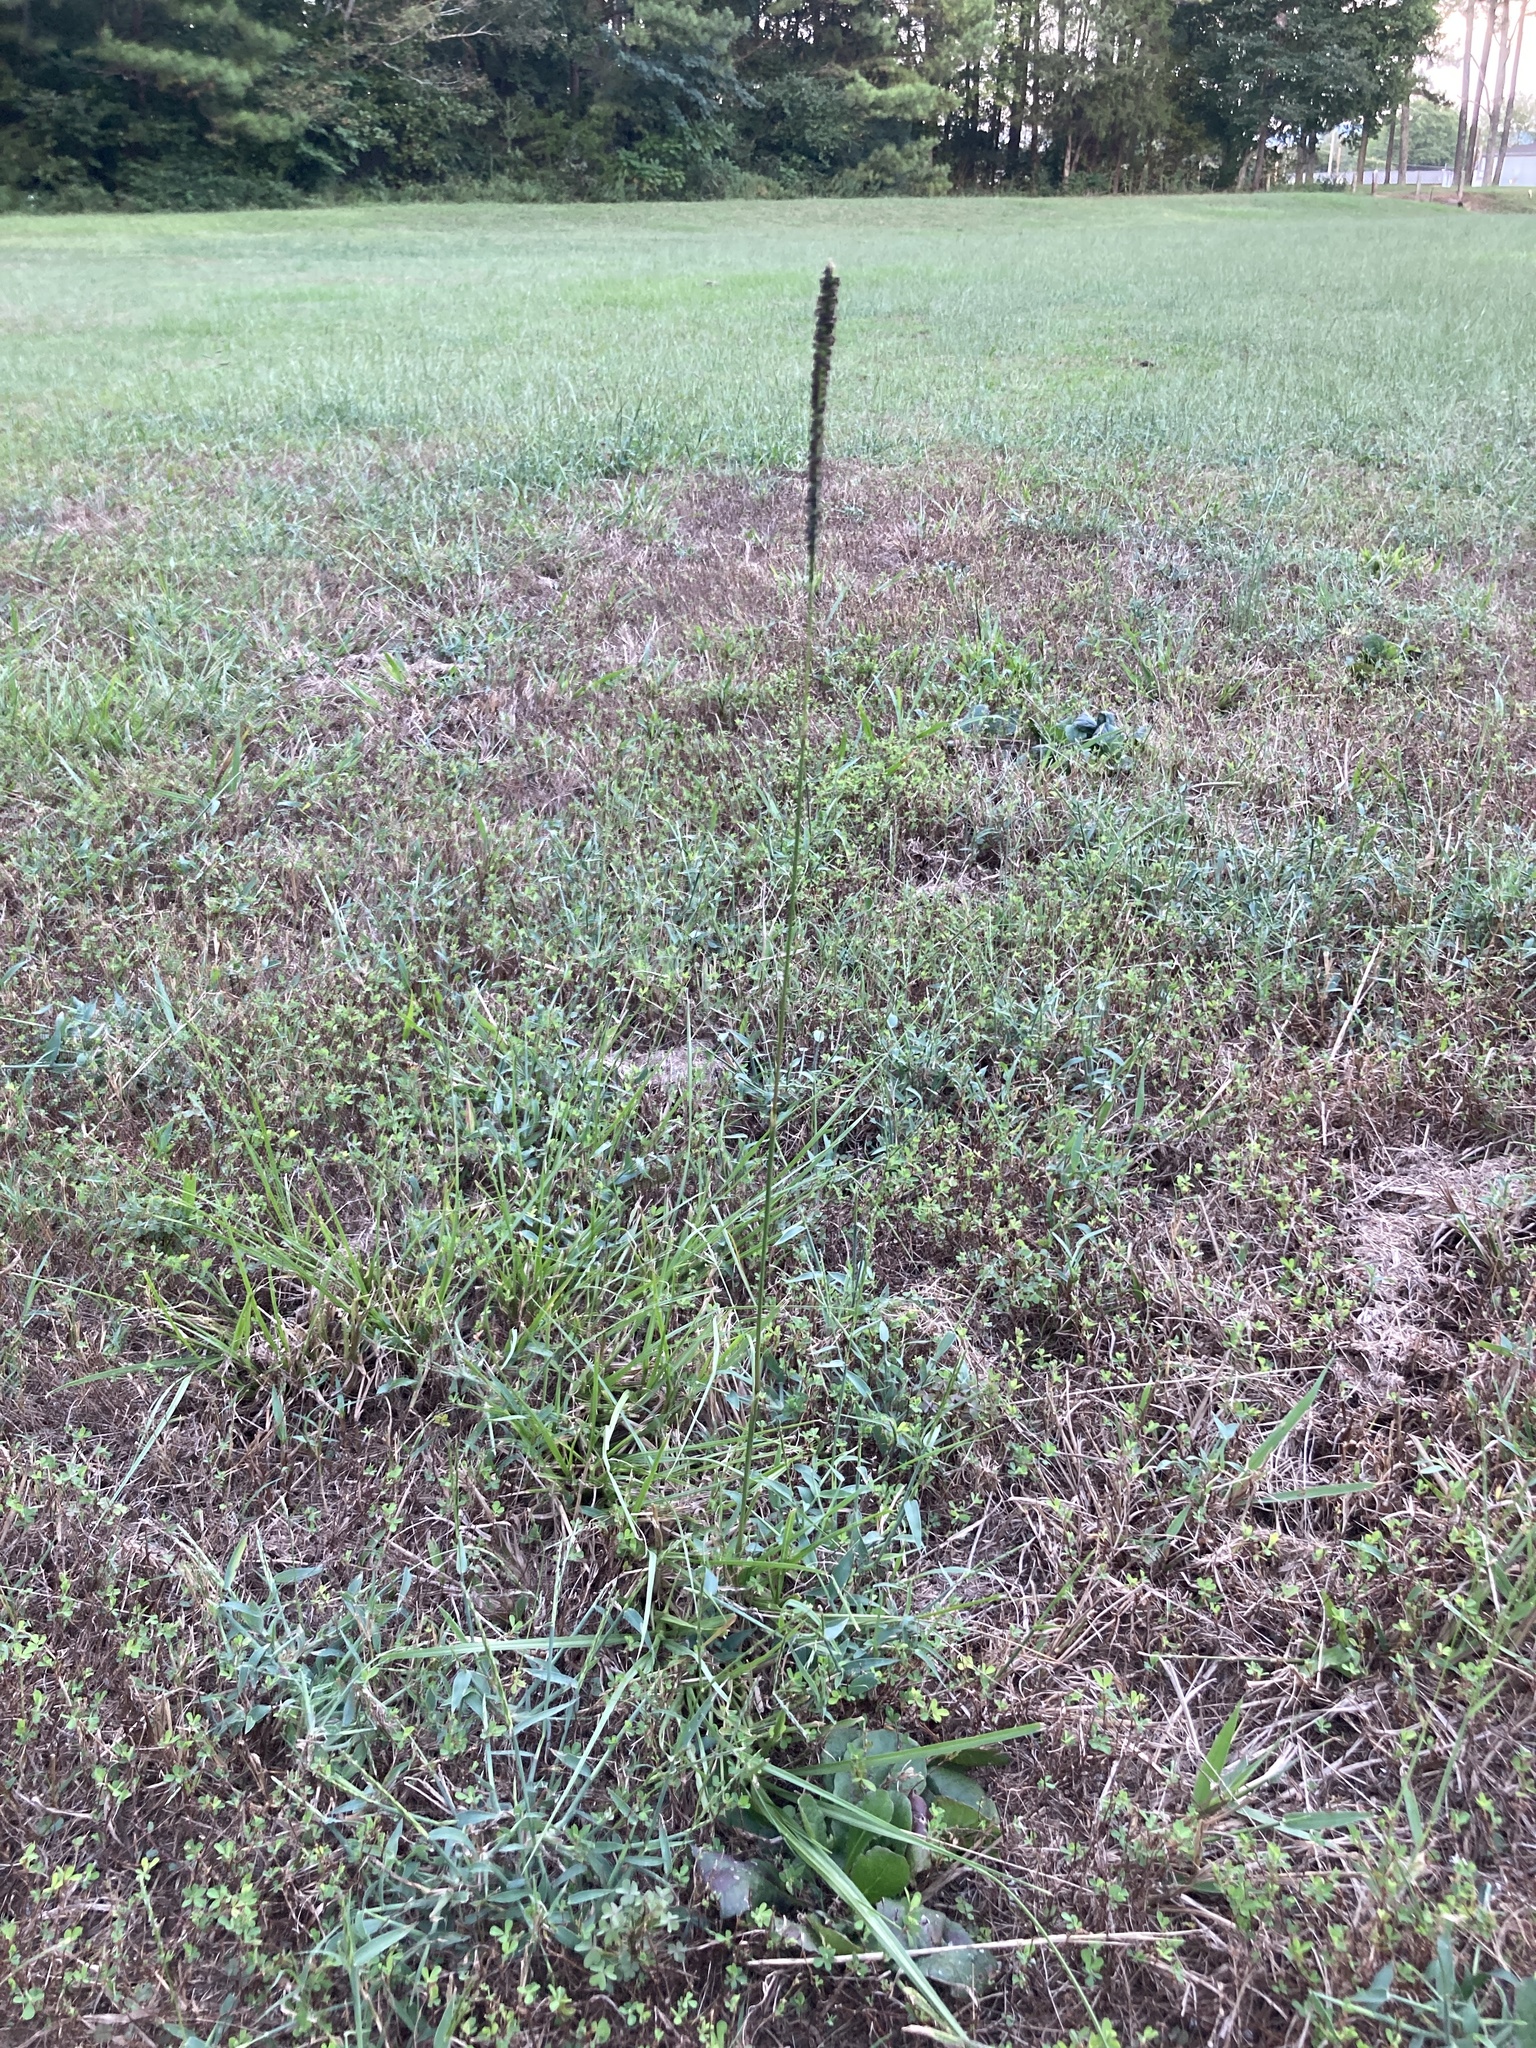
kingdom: Plantae
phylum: Tracheophyta
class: Liliopsida
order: Poales
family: Poaceae
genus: Paspalum
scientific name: Paspalum notatum
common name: Bahiagrass
